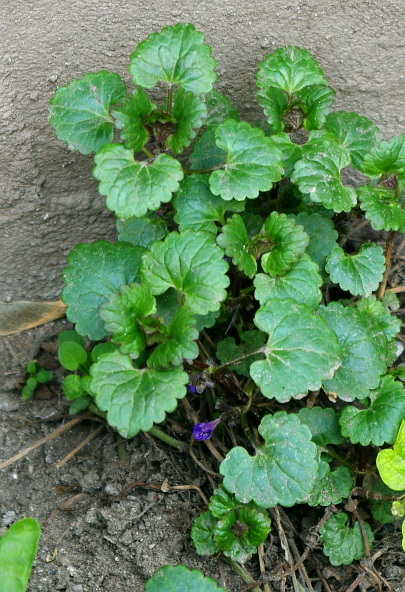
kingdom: Plantae
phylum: Tracheophyta
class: Magnoliopsida
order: Lamiales
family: Lamiaceae
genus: Glechoma
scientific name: Glechoma hederacea
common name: Ground ivy
